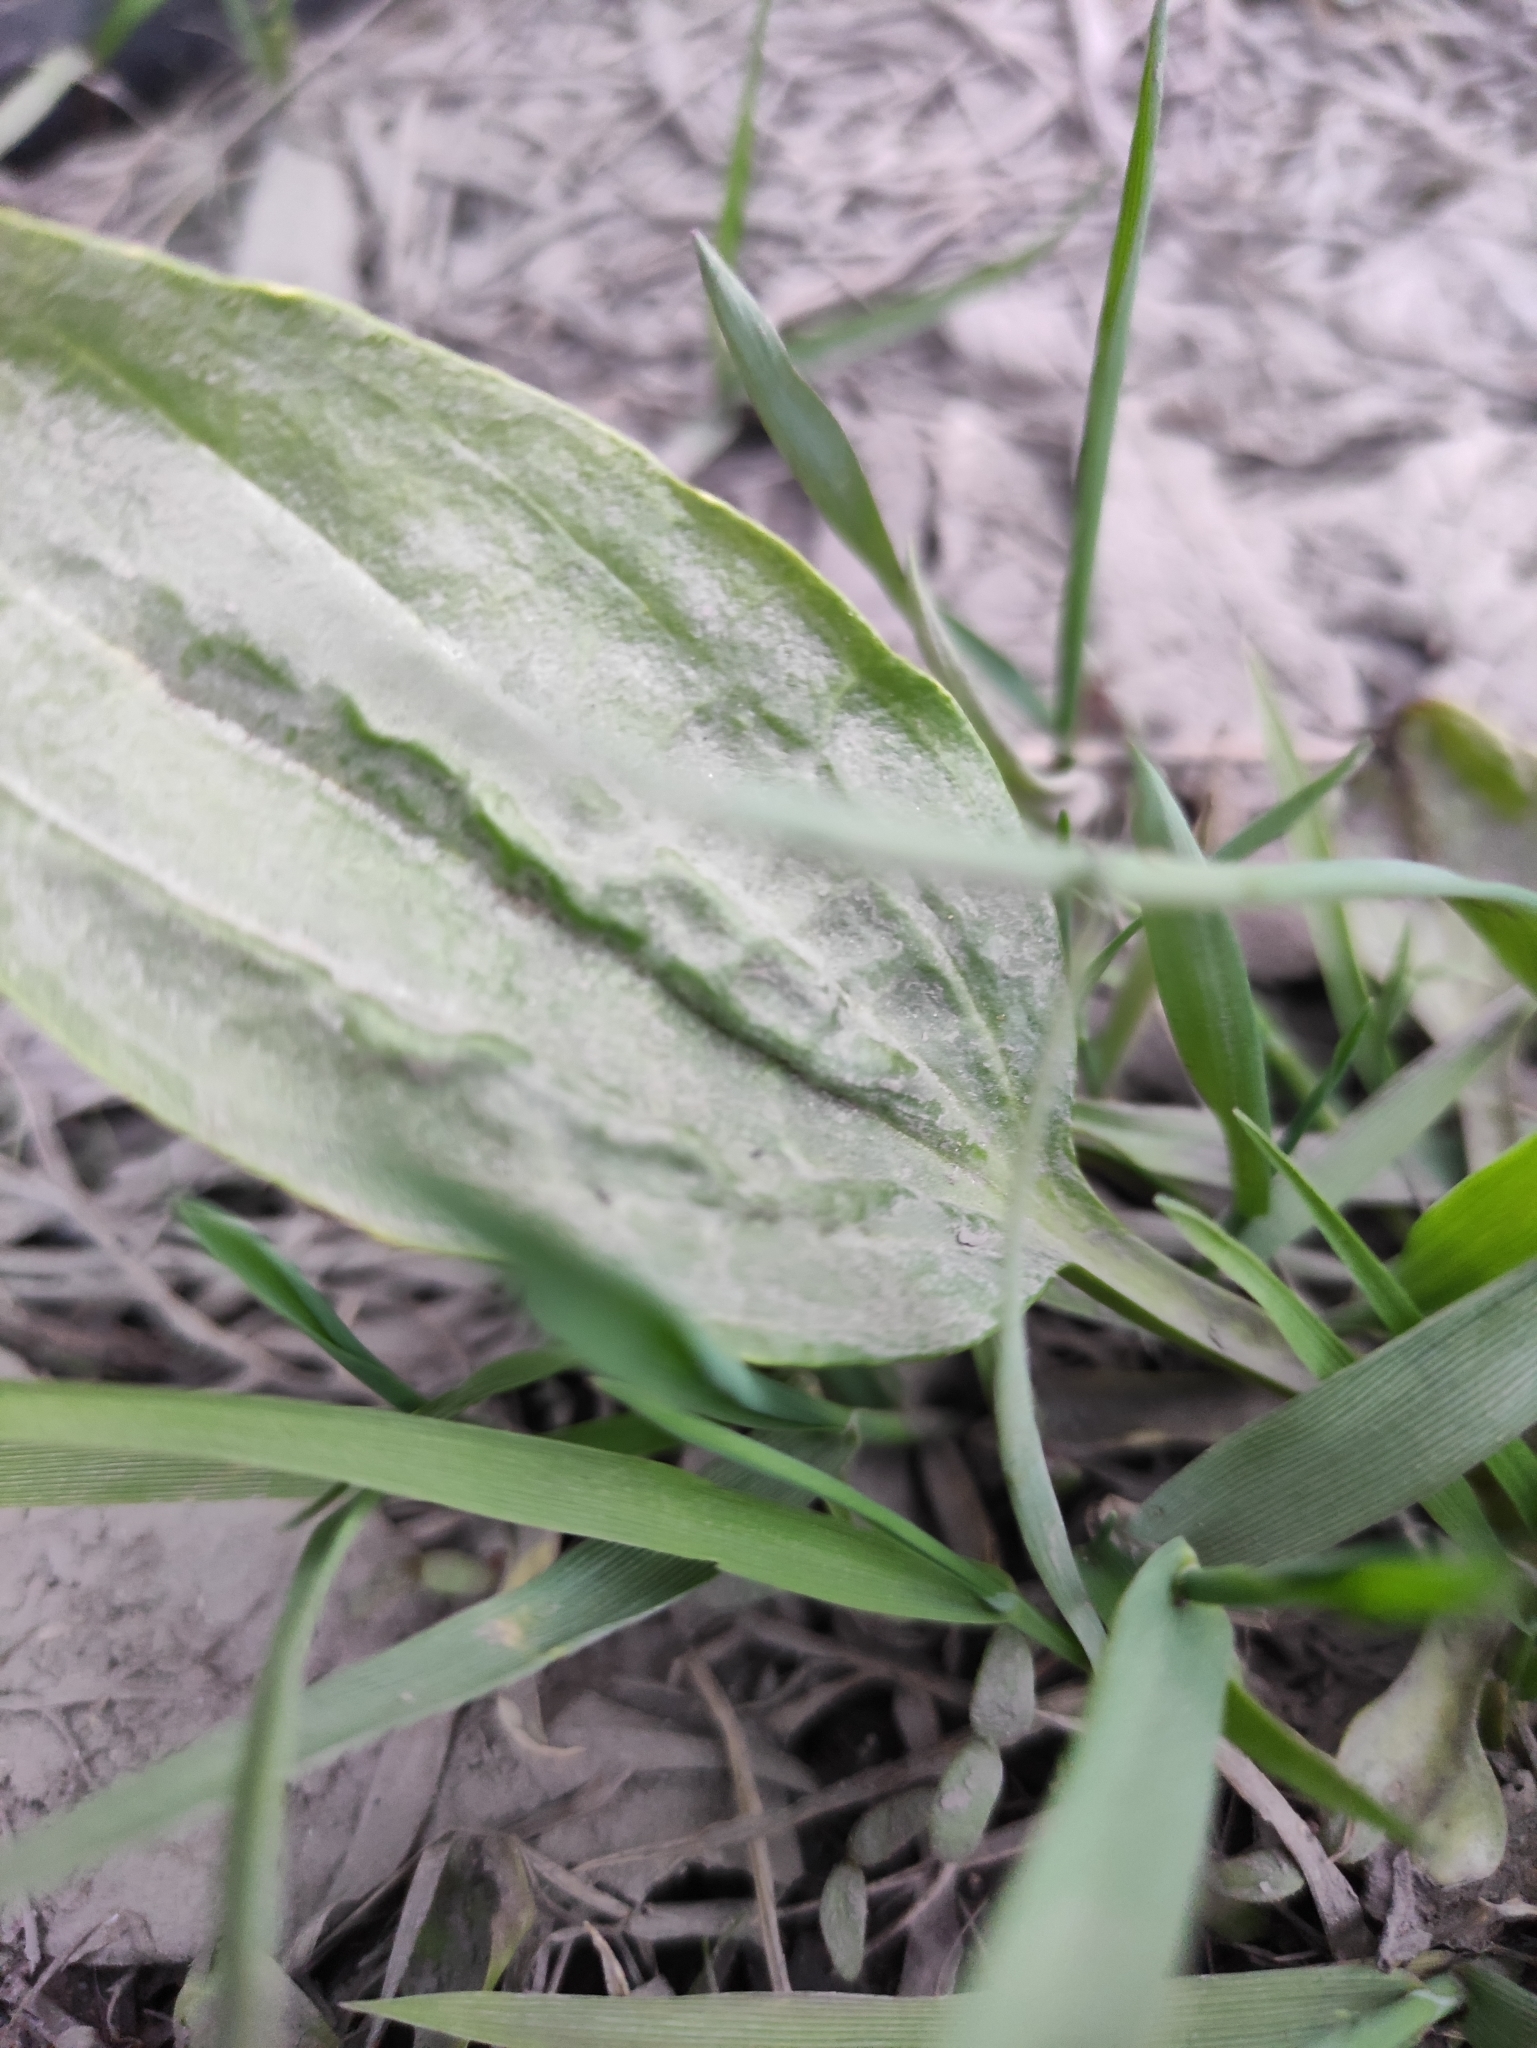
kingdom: Plantae
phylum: Tracheophyta
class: Magnoliopsida
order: Lamiales
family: Plantaginaceae
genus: Plantago
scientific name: Plantago major
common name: Common plantain
